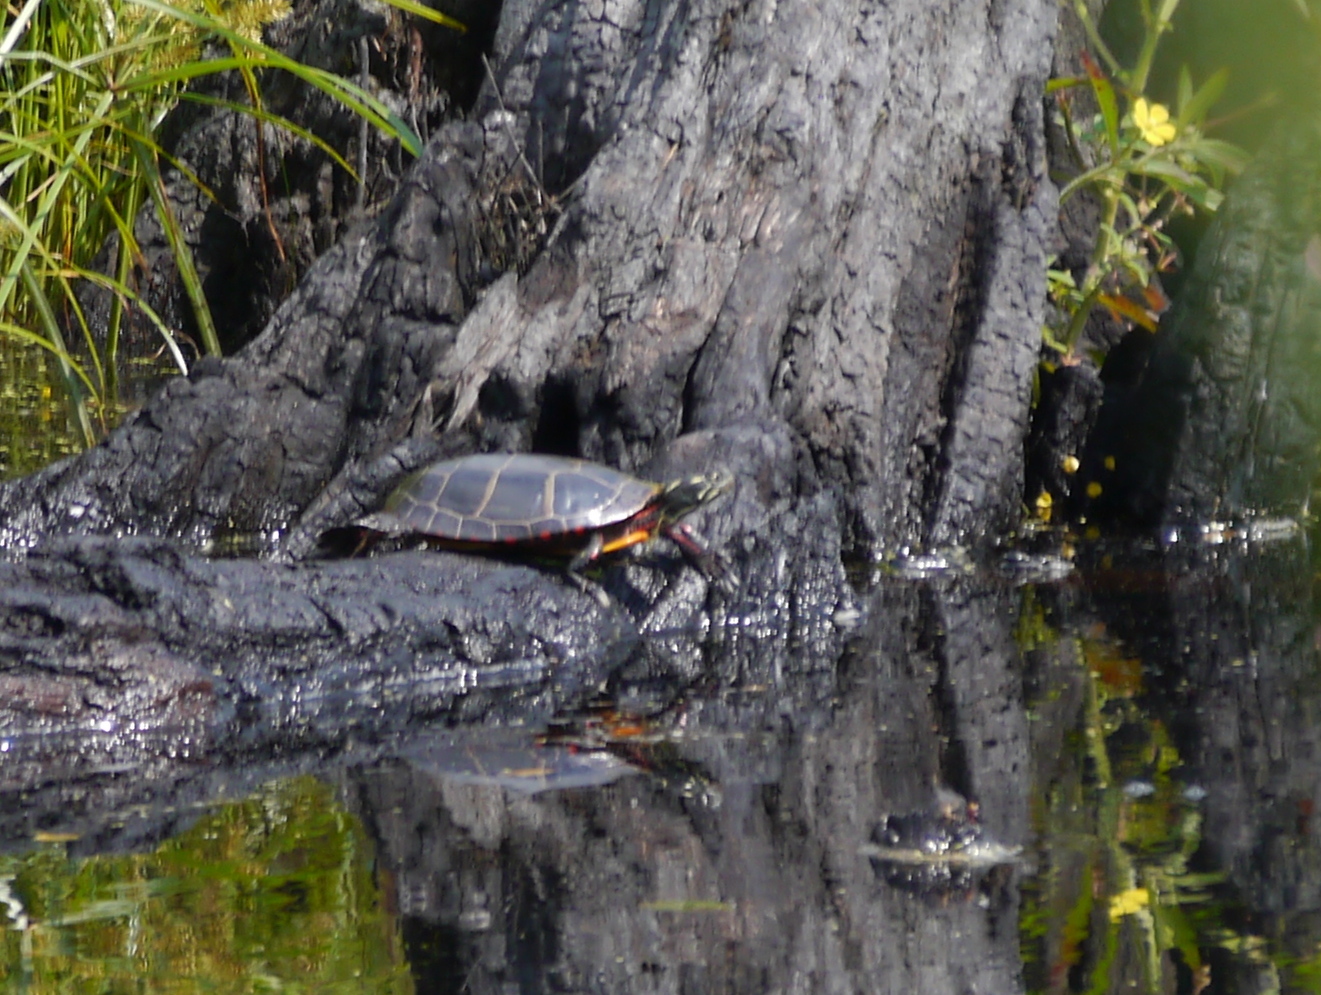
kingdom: Animalia
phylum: Chordata
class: Testudines
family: Emydidae
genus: Chrysemys
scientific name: Chrysemys picta
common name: Painted turtle
